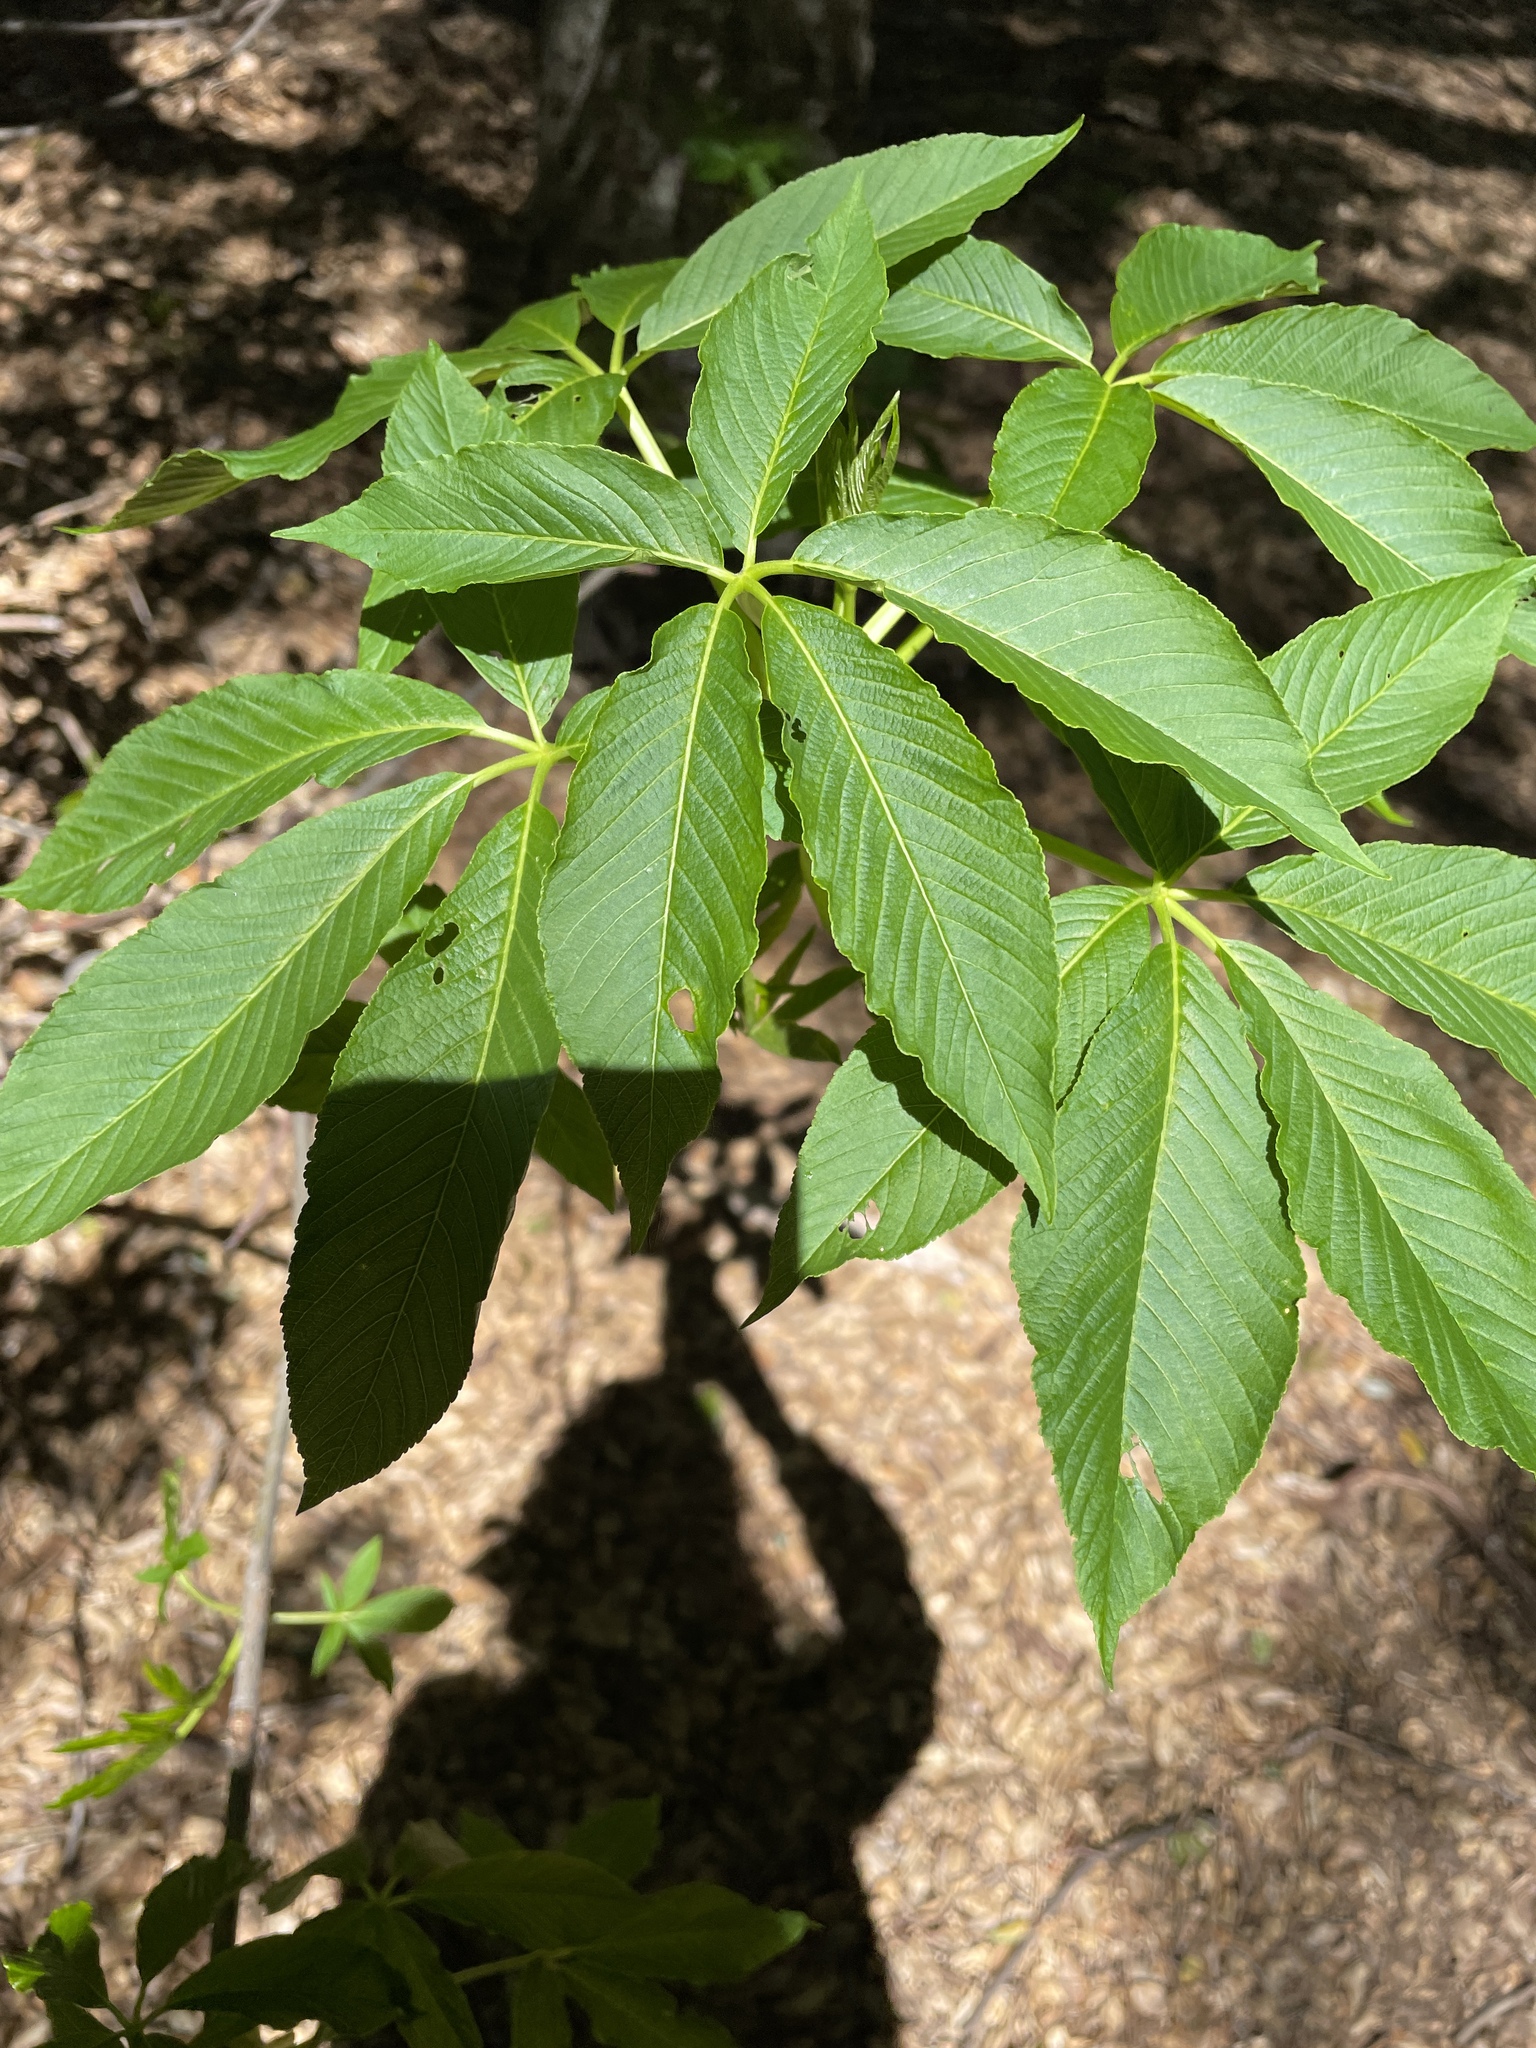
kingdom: Plantae
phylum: Tracheophyta
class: Magnoliopsida
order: Sapindales
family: Sapindaceae
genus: Aesculus
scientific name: Aesculus californica
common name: California buckeye
